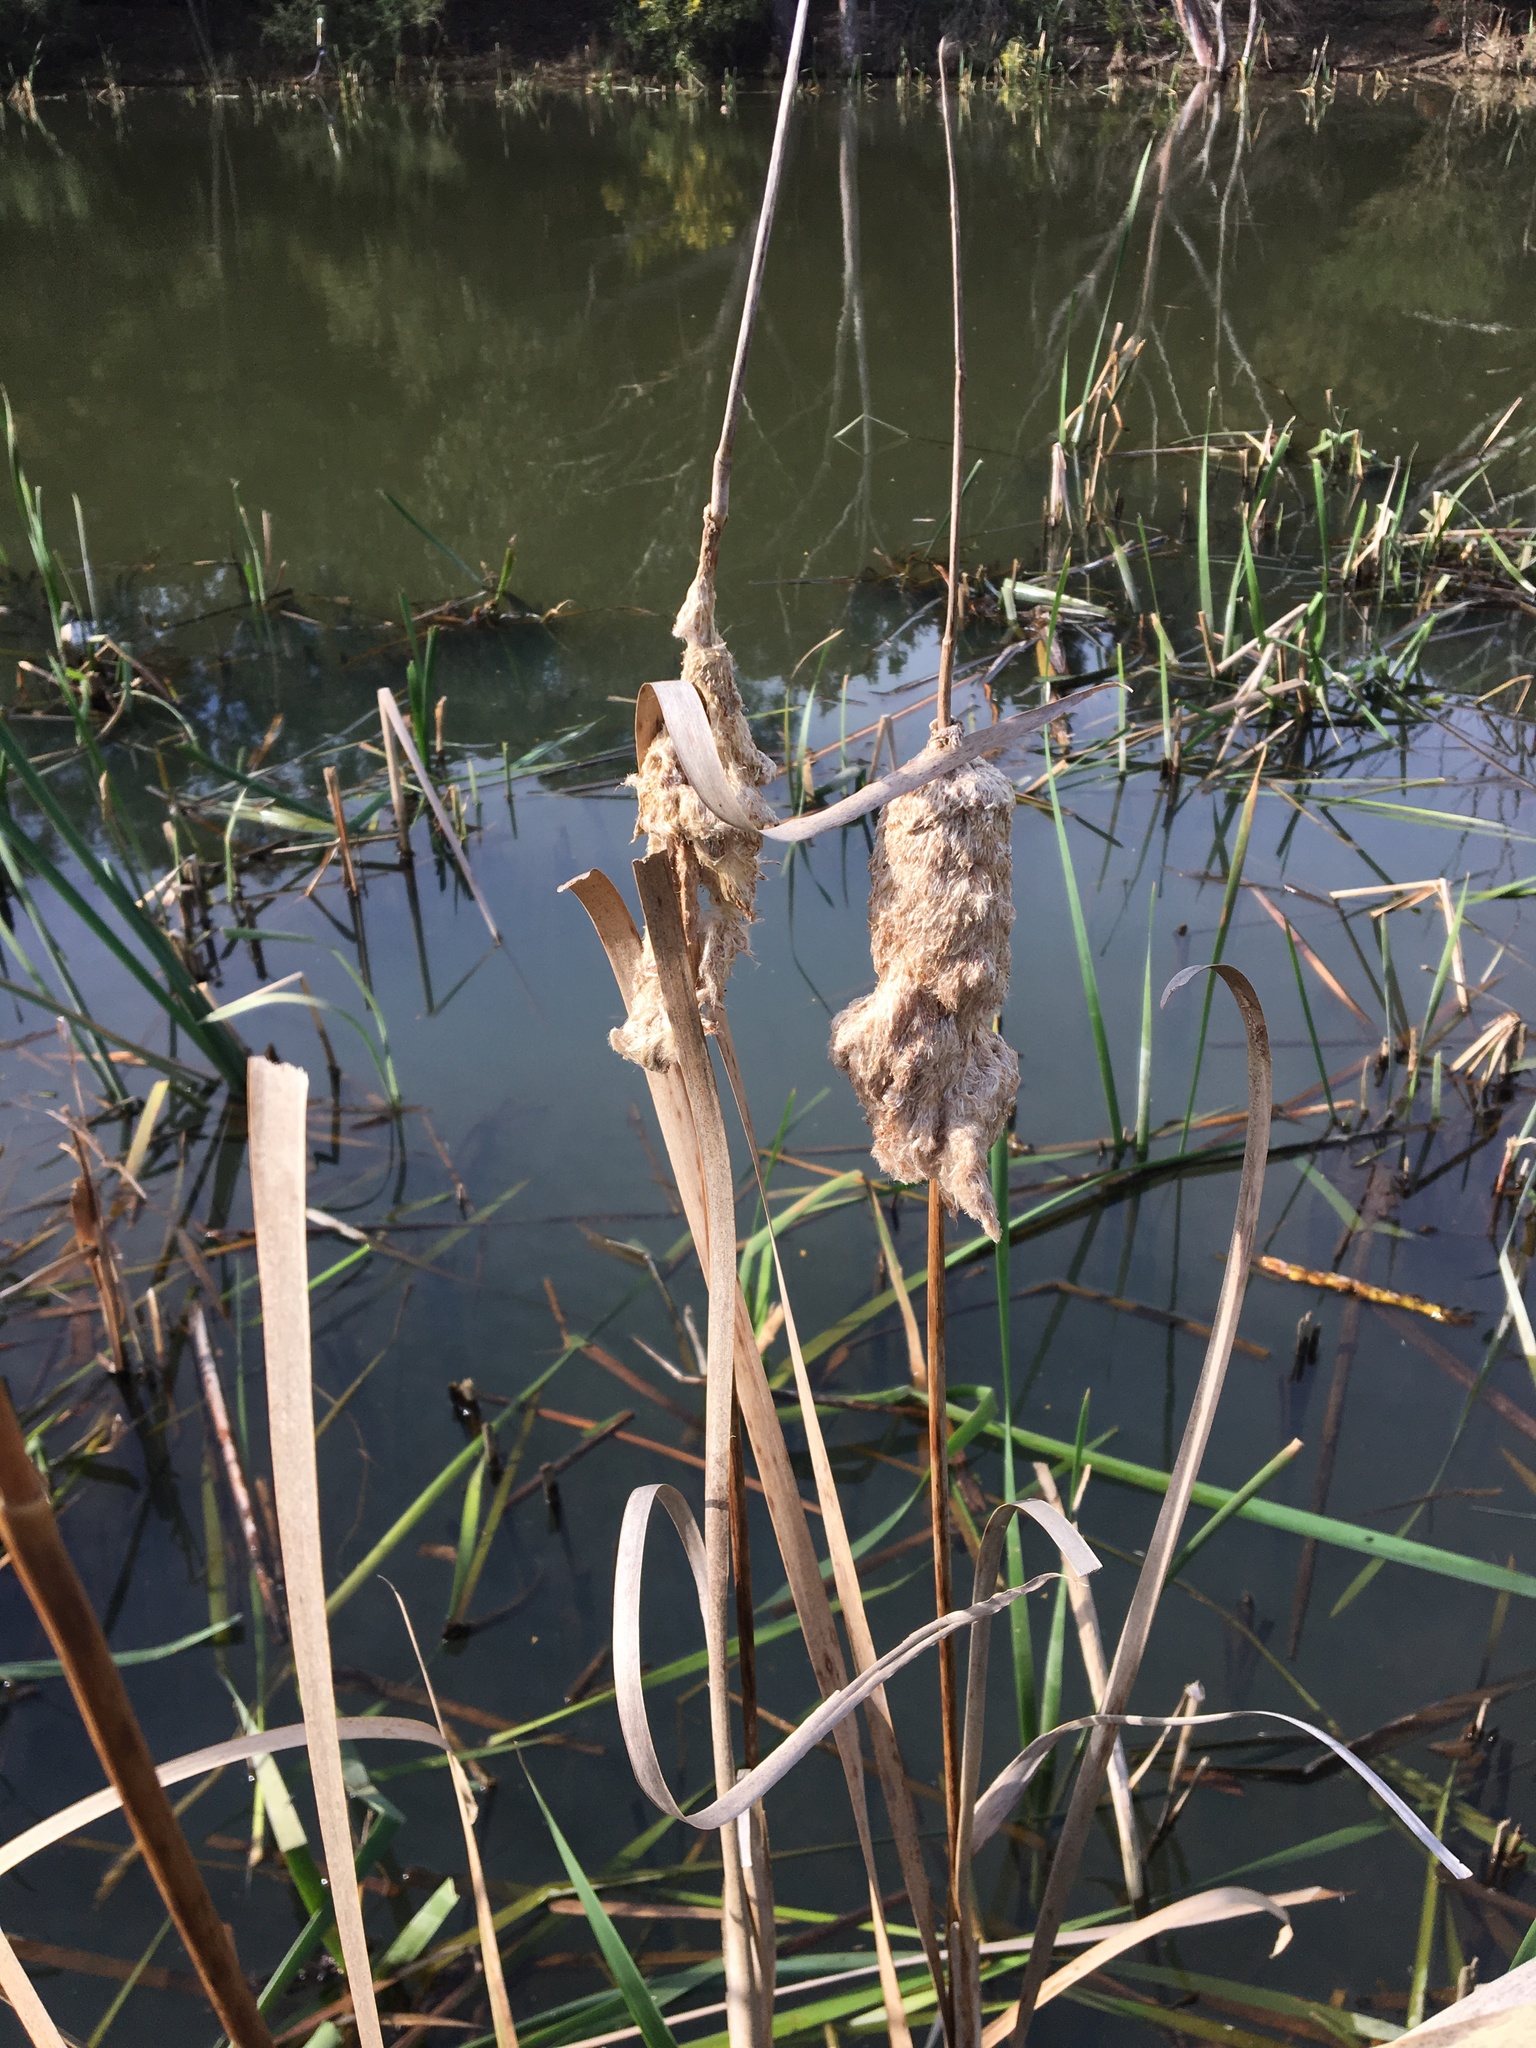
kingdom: Plantae
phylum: Tracheophyta
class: Liliopsida
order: Poales
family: Typhaceae
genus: Typha
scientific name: Typha orientalis
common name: Bullrush
